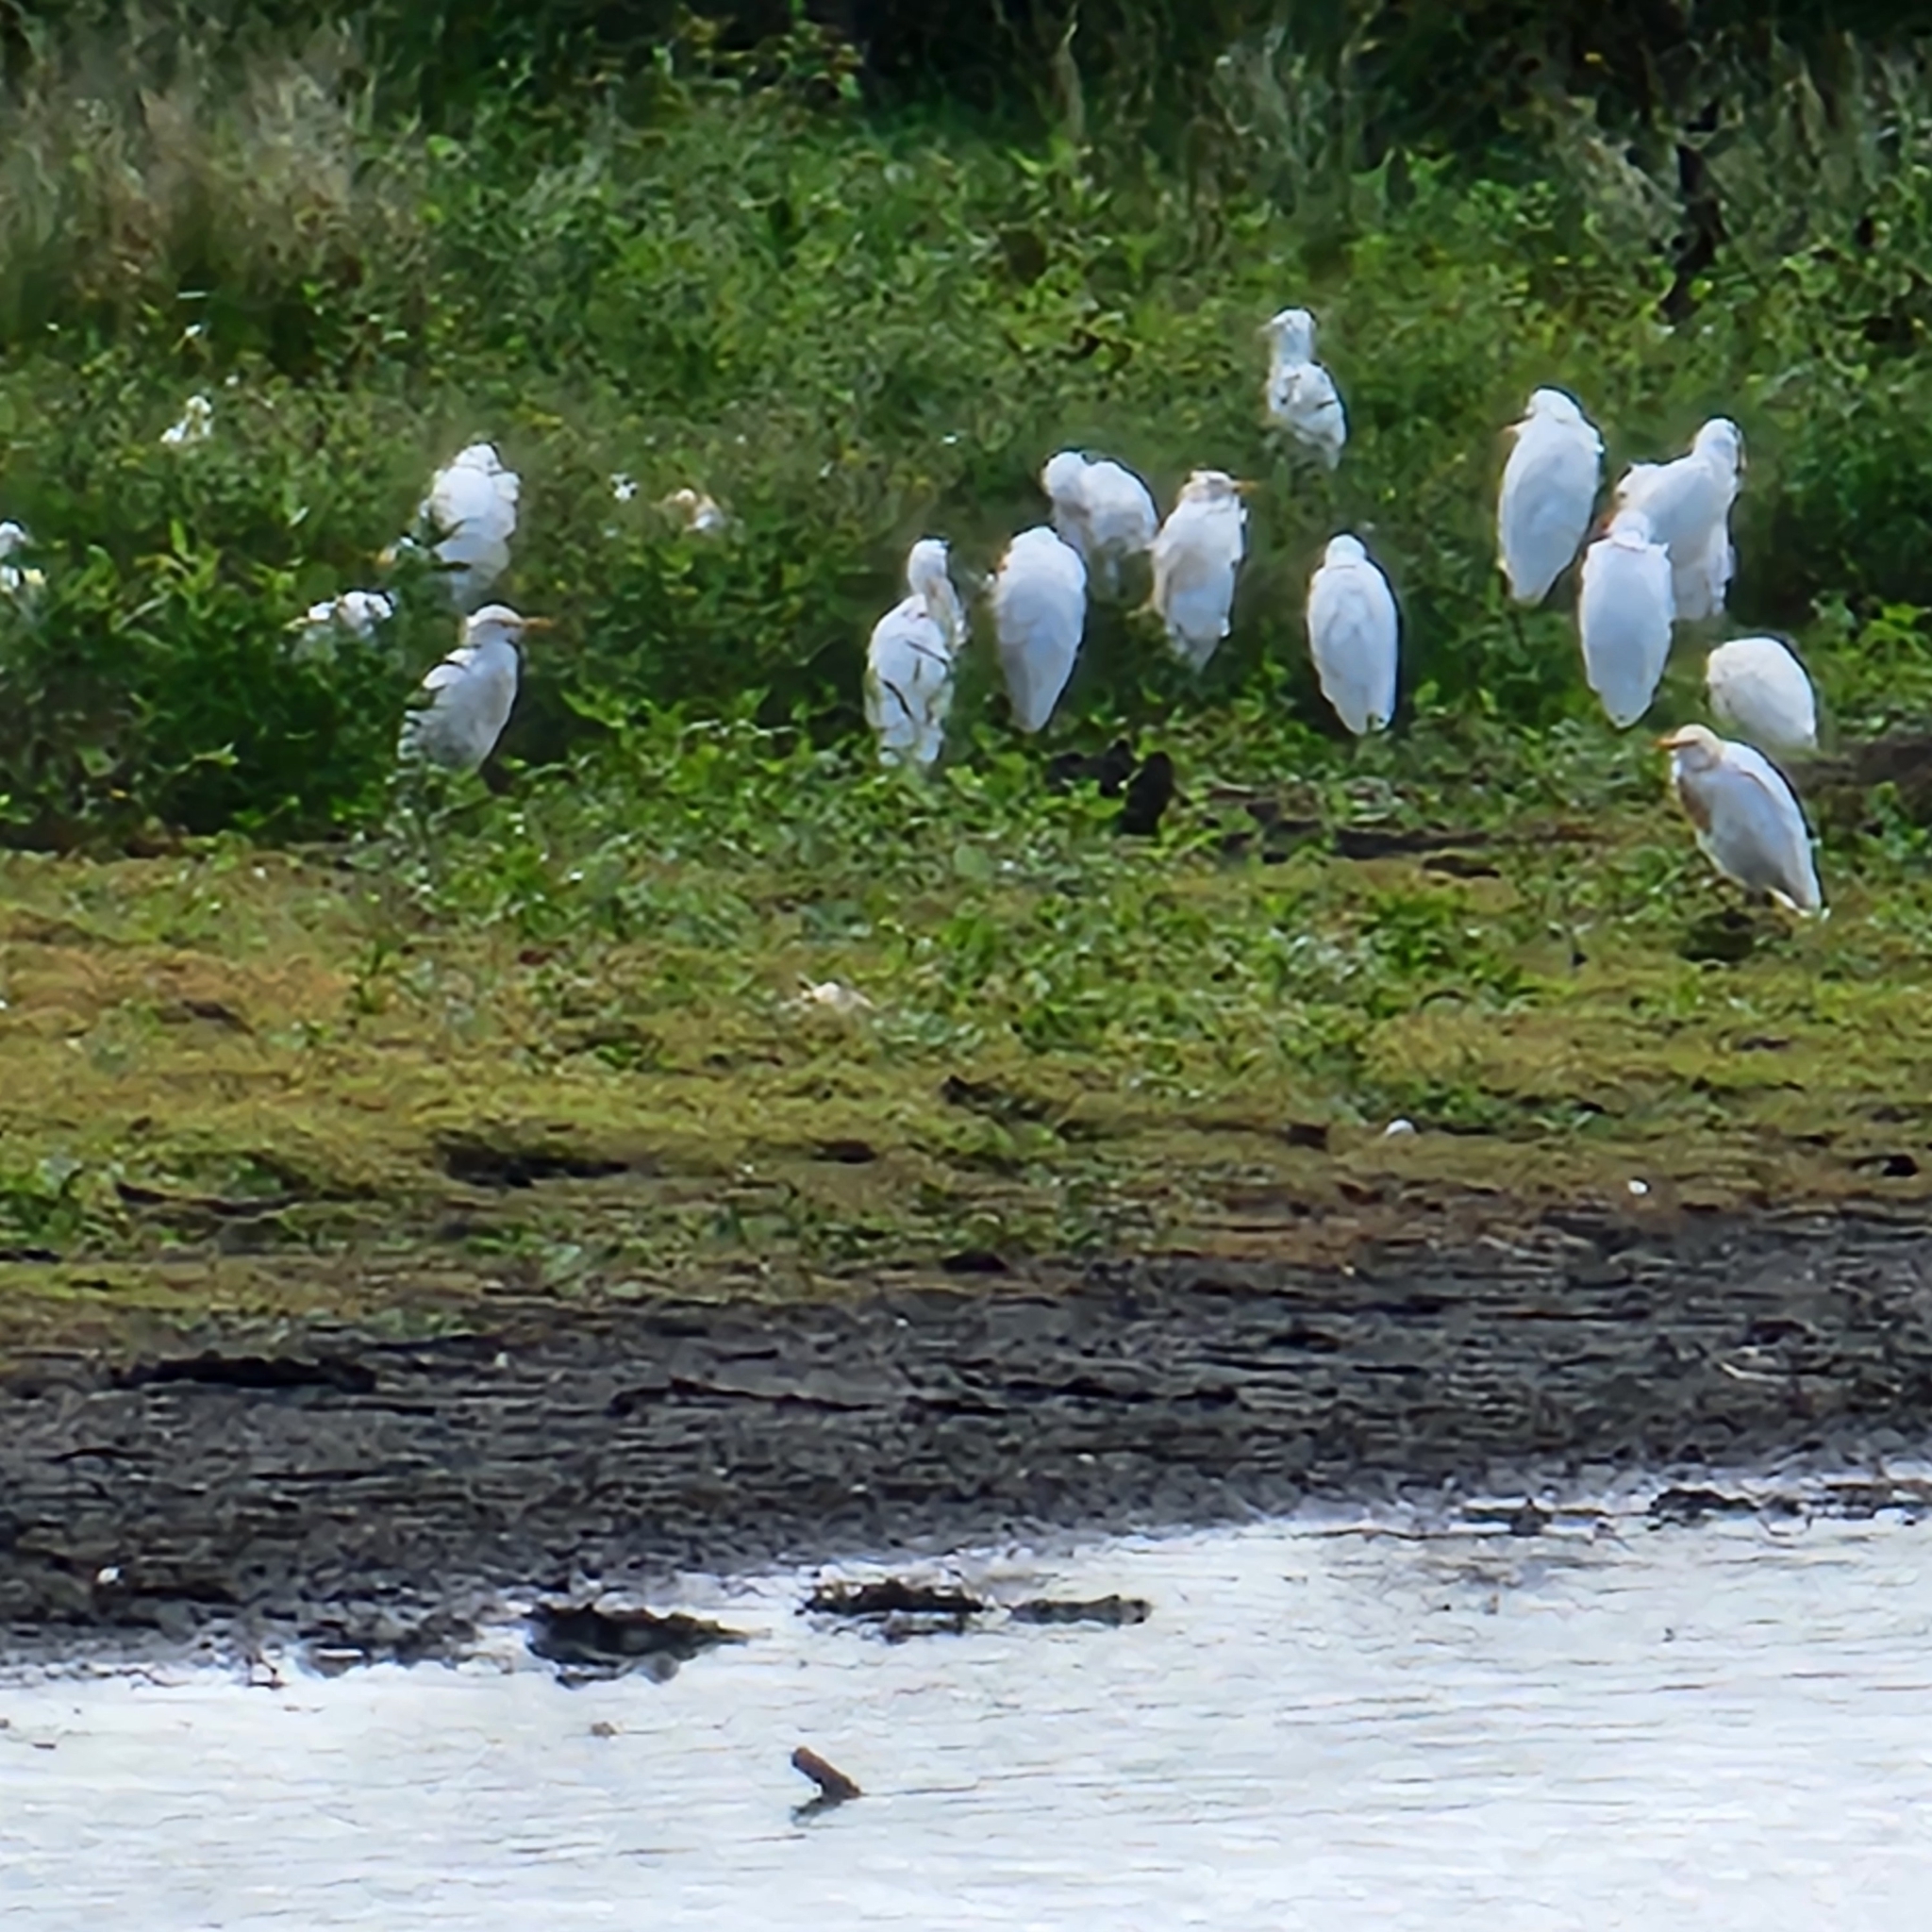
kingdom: Animalia
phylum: Chordata
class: Aves
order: Pelecaniformes
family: Ardeidae
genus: Bubulcus
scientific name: Bubulcus coromandus
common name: Eastern cattle egret
